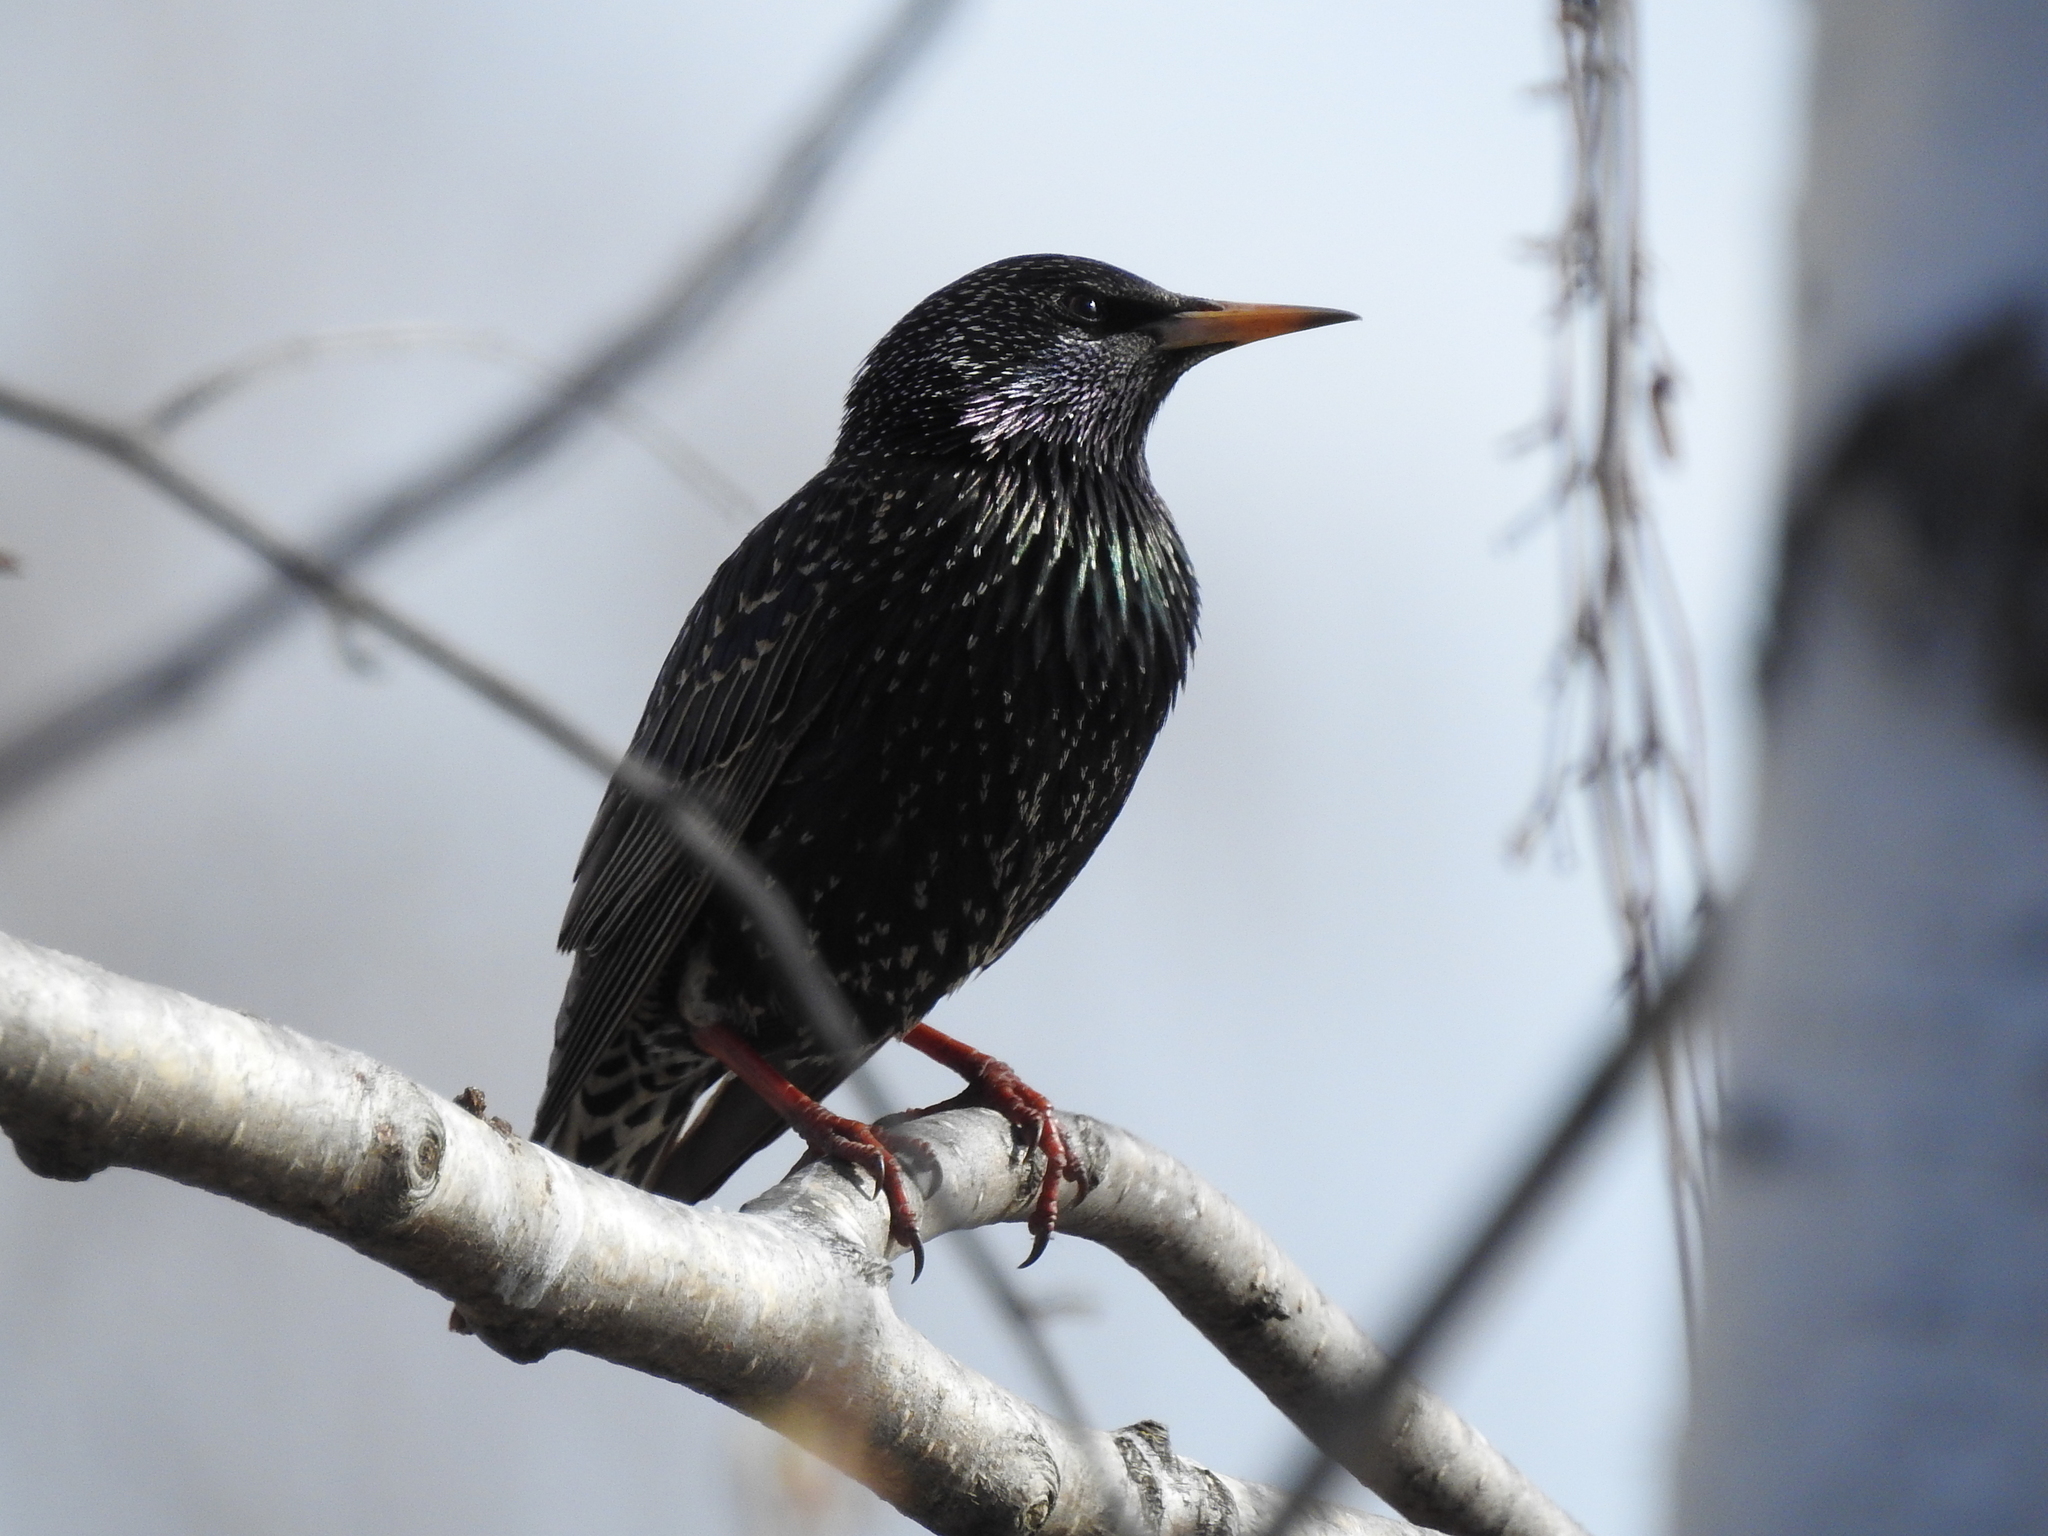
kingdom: Animalia
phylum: Chordata
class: Aves
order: Passeriformes
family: Sturnidae
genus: Sturnus
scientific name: Sturnus vulgaris
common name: Common starling
